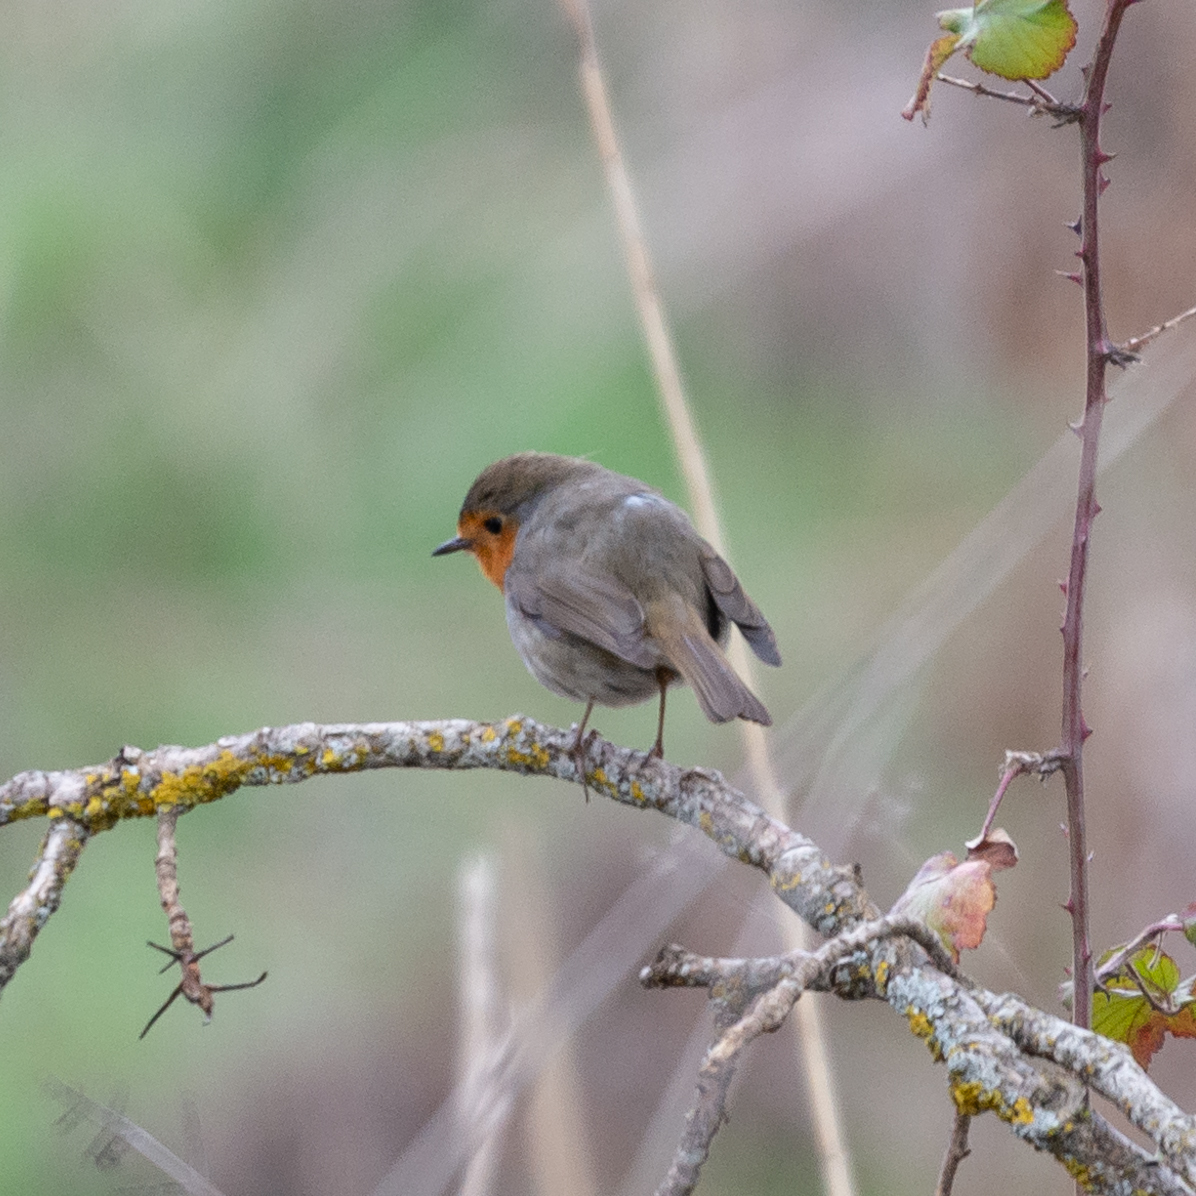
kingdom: Animalia
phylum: Chordata
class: Aves
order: Passeriformes
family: Muscicapidae
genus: Erithacus
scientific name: Erithacus rubecula
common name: European robin
